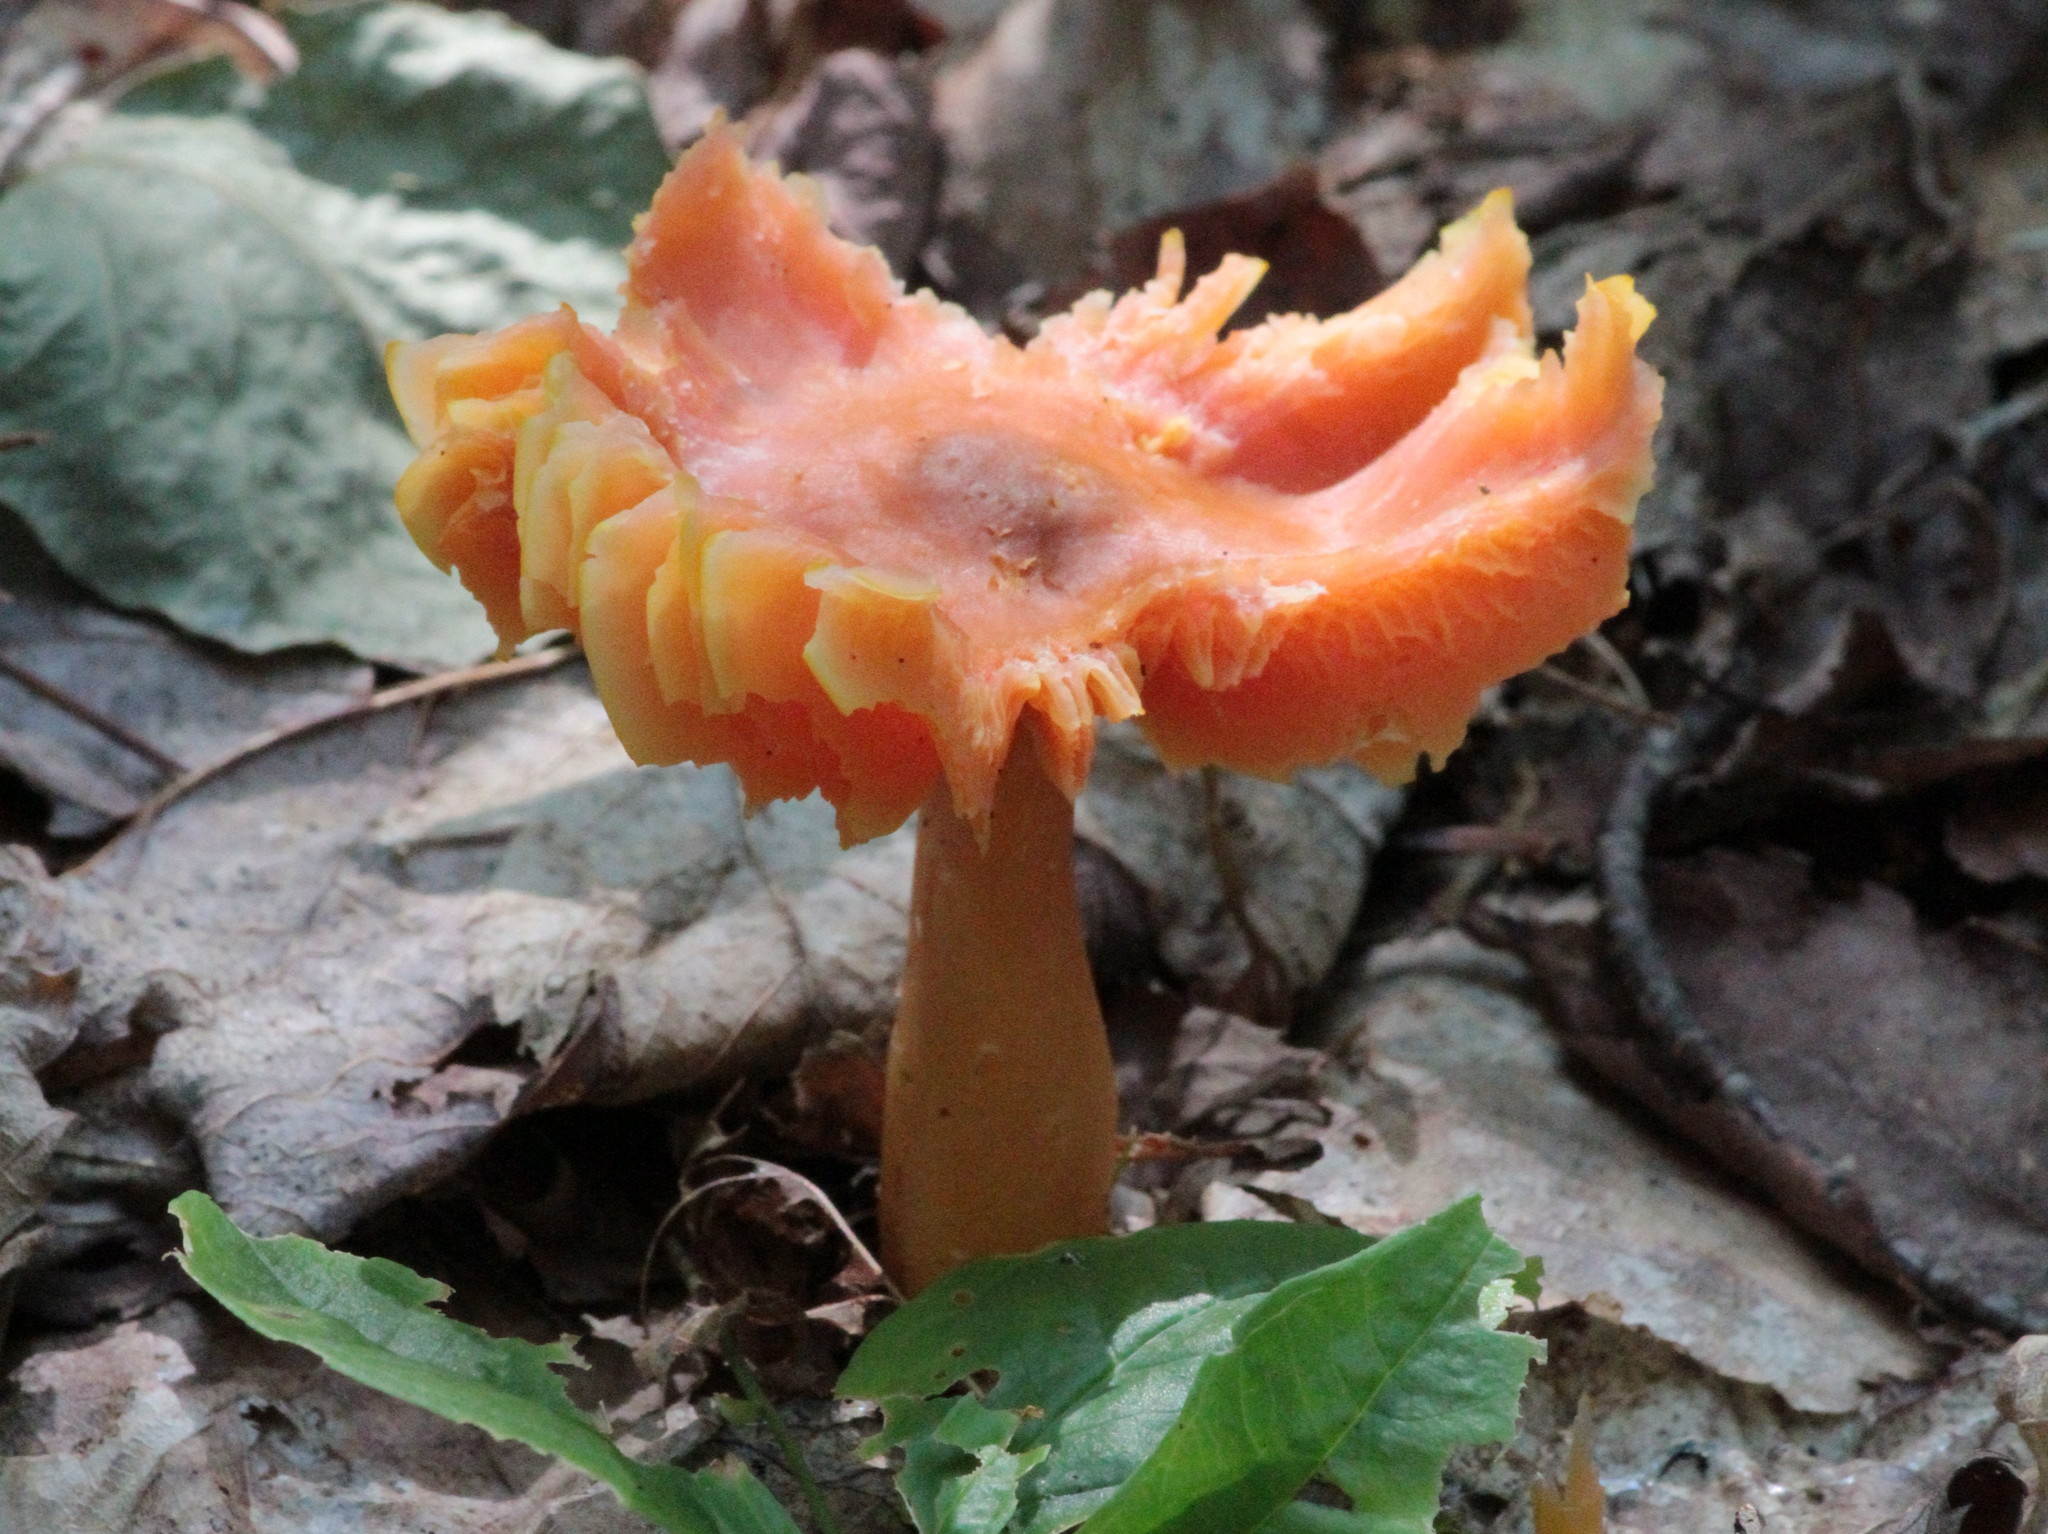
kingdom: Fungi
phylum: Basidiomycota
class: Agaricomycetes
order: Agaricales
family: Hygrophoraceae
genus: Humidicutis
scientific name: Humidicutis marginata
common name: Orange gilled waxcap
